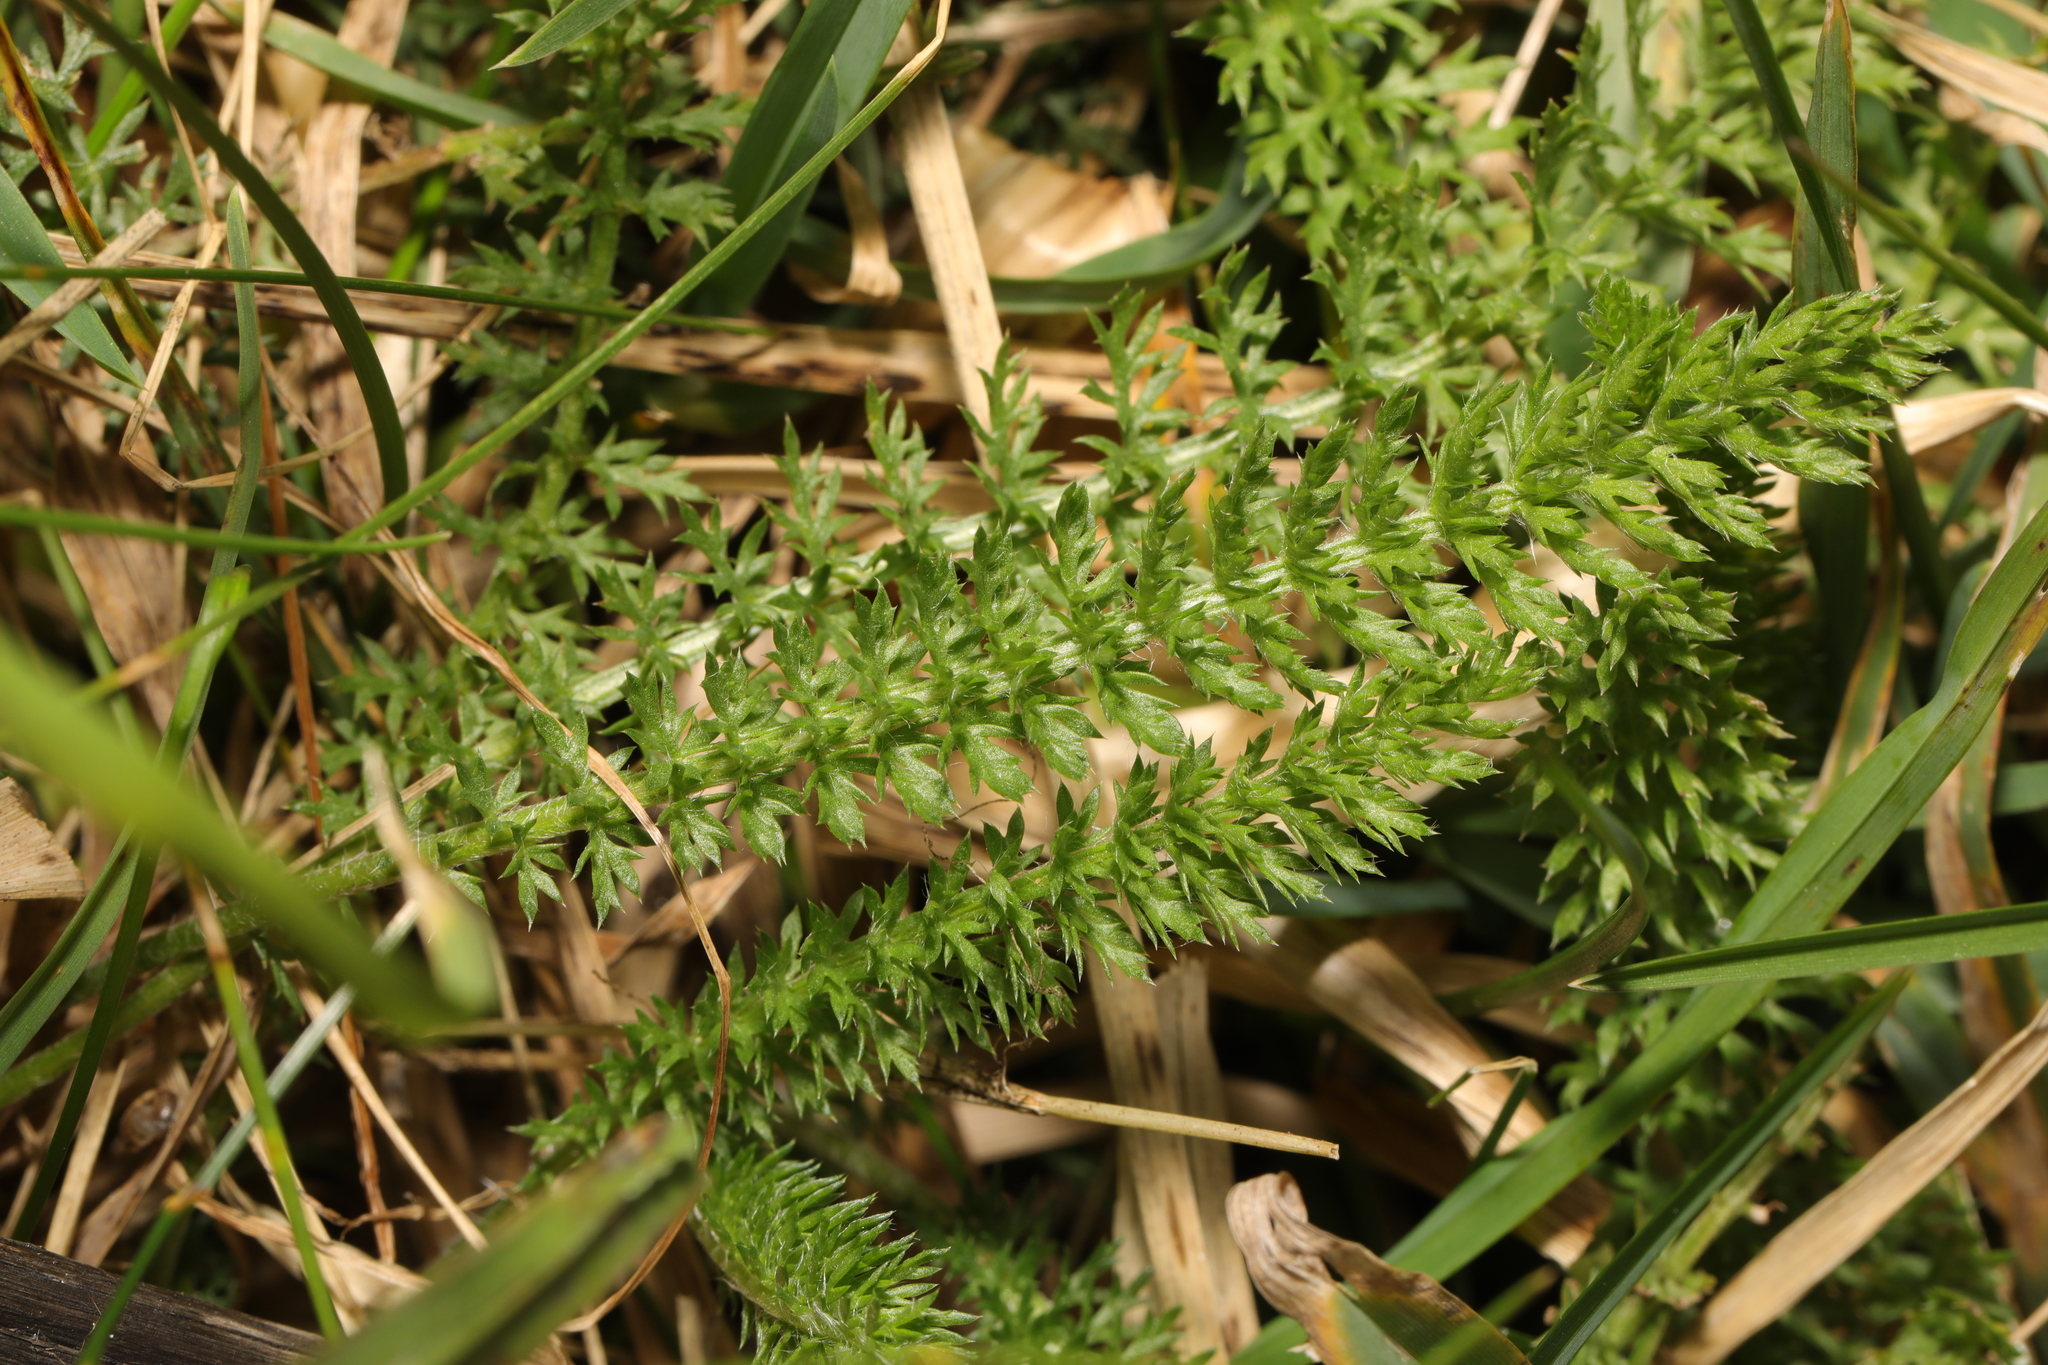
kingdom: Plantae
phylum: Tracheophyta
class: Magnoliopsida
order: Asterales
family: Asteraceae
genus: Achillea
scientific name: Achillea millefolium
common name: Yarrow
